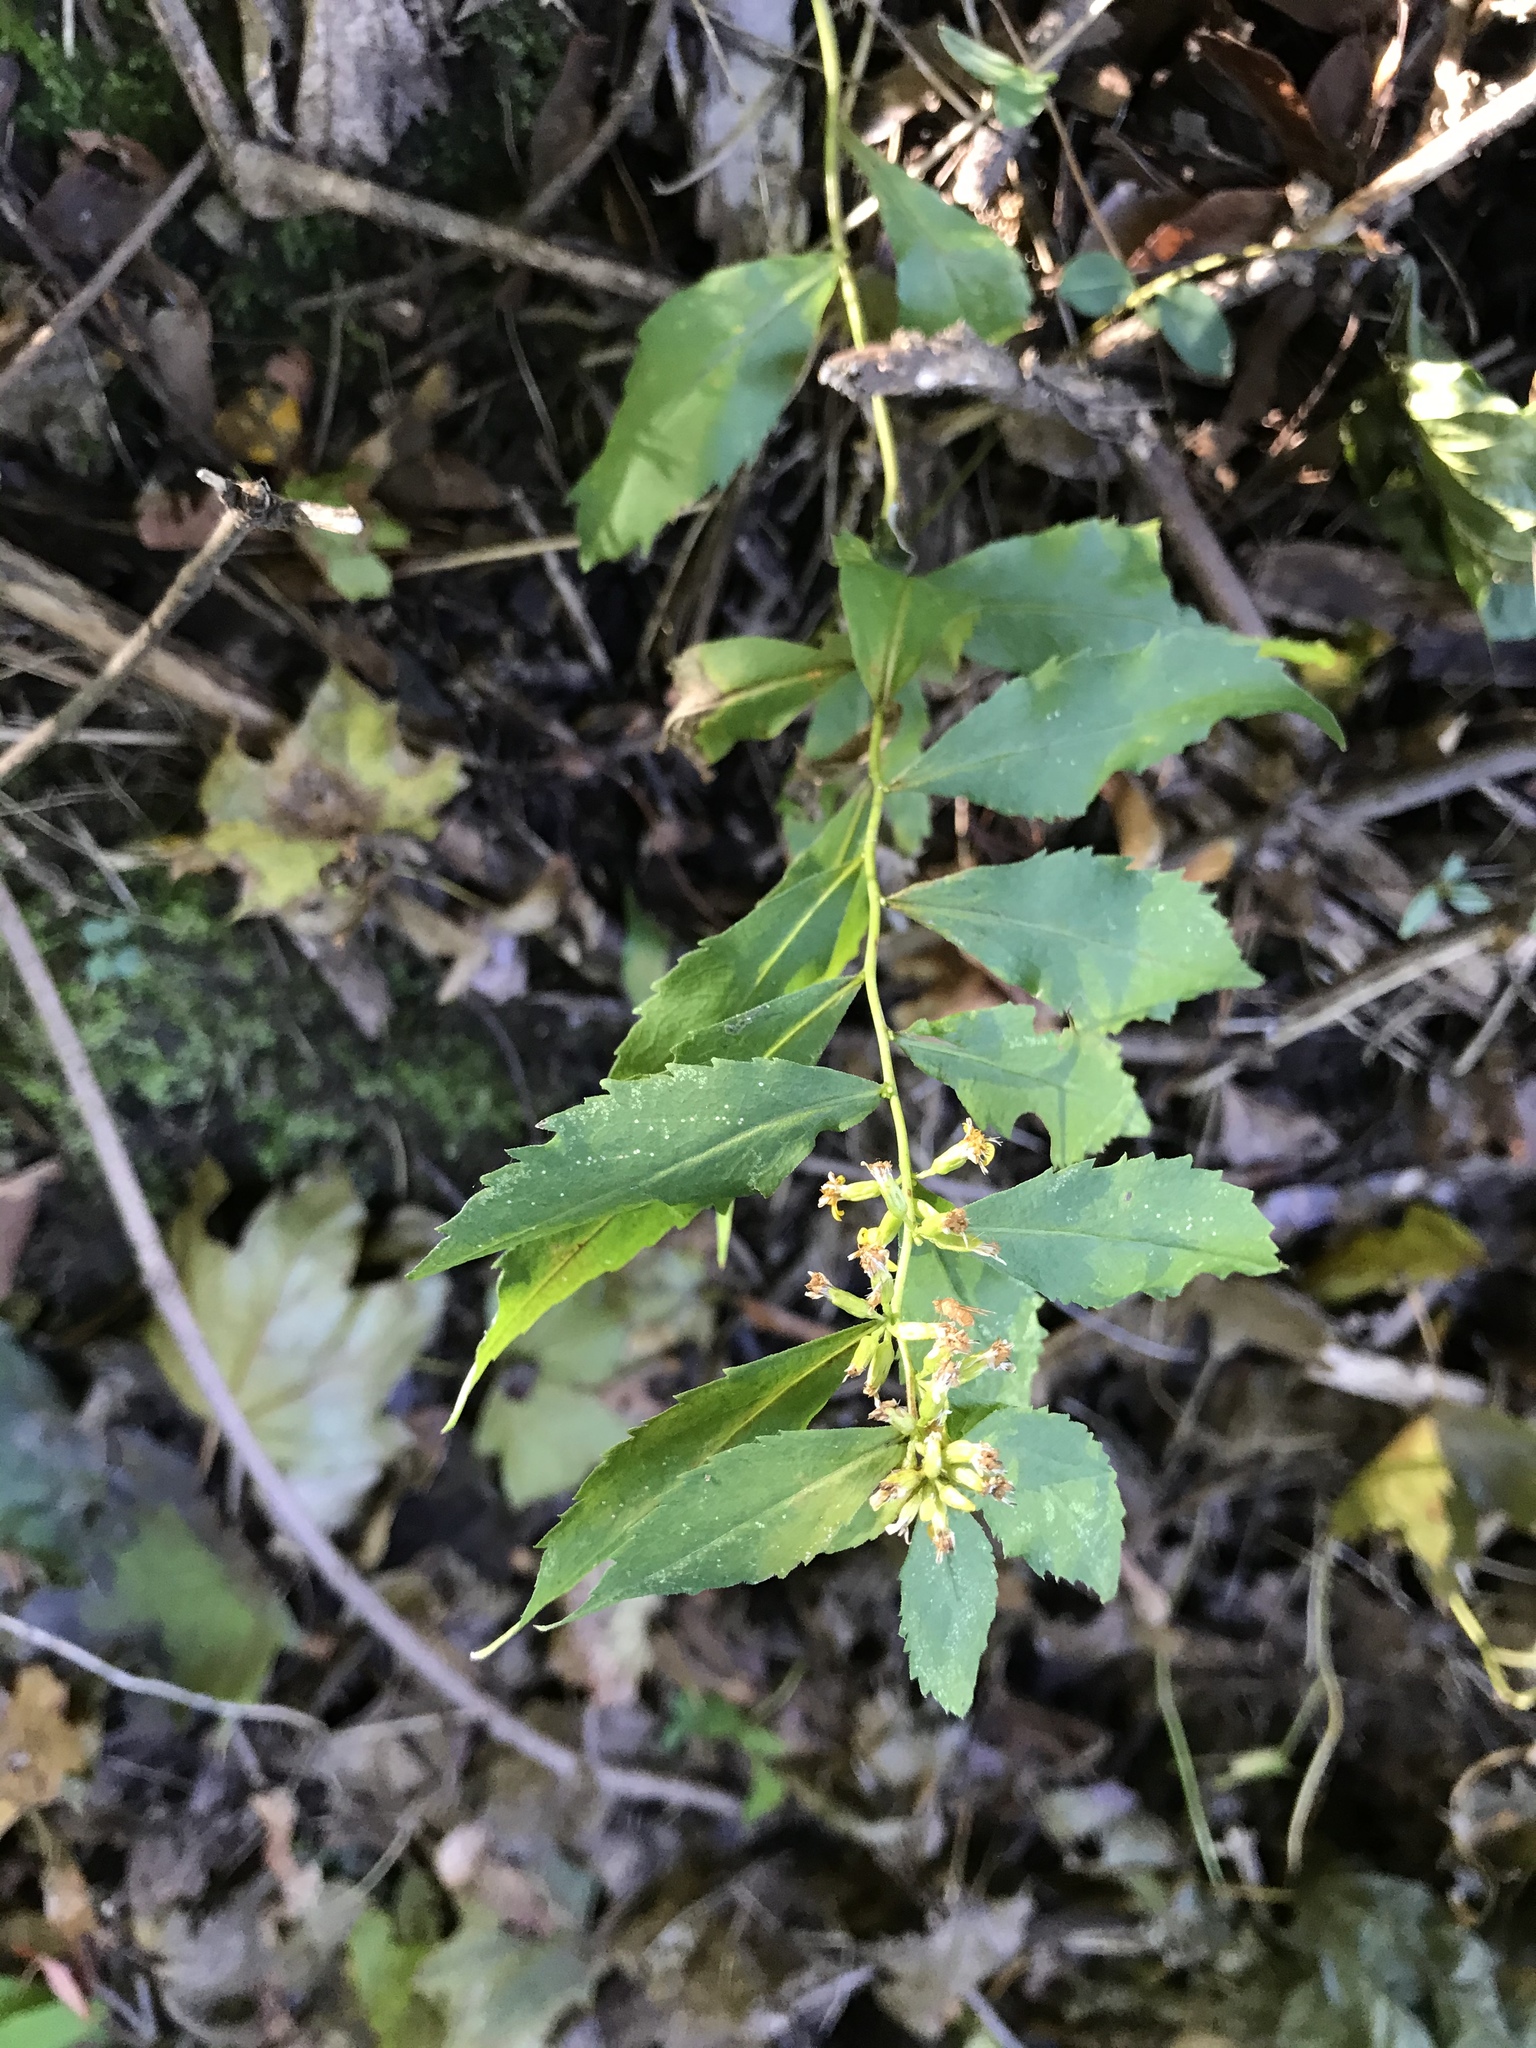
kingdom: Plantae
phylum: Tracheophyta
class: Magnoliopsida
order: Asterales
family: Asteraceae
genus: Solidago
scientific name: Solidago caesia
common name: Woodland goldenrod
